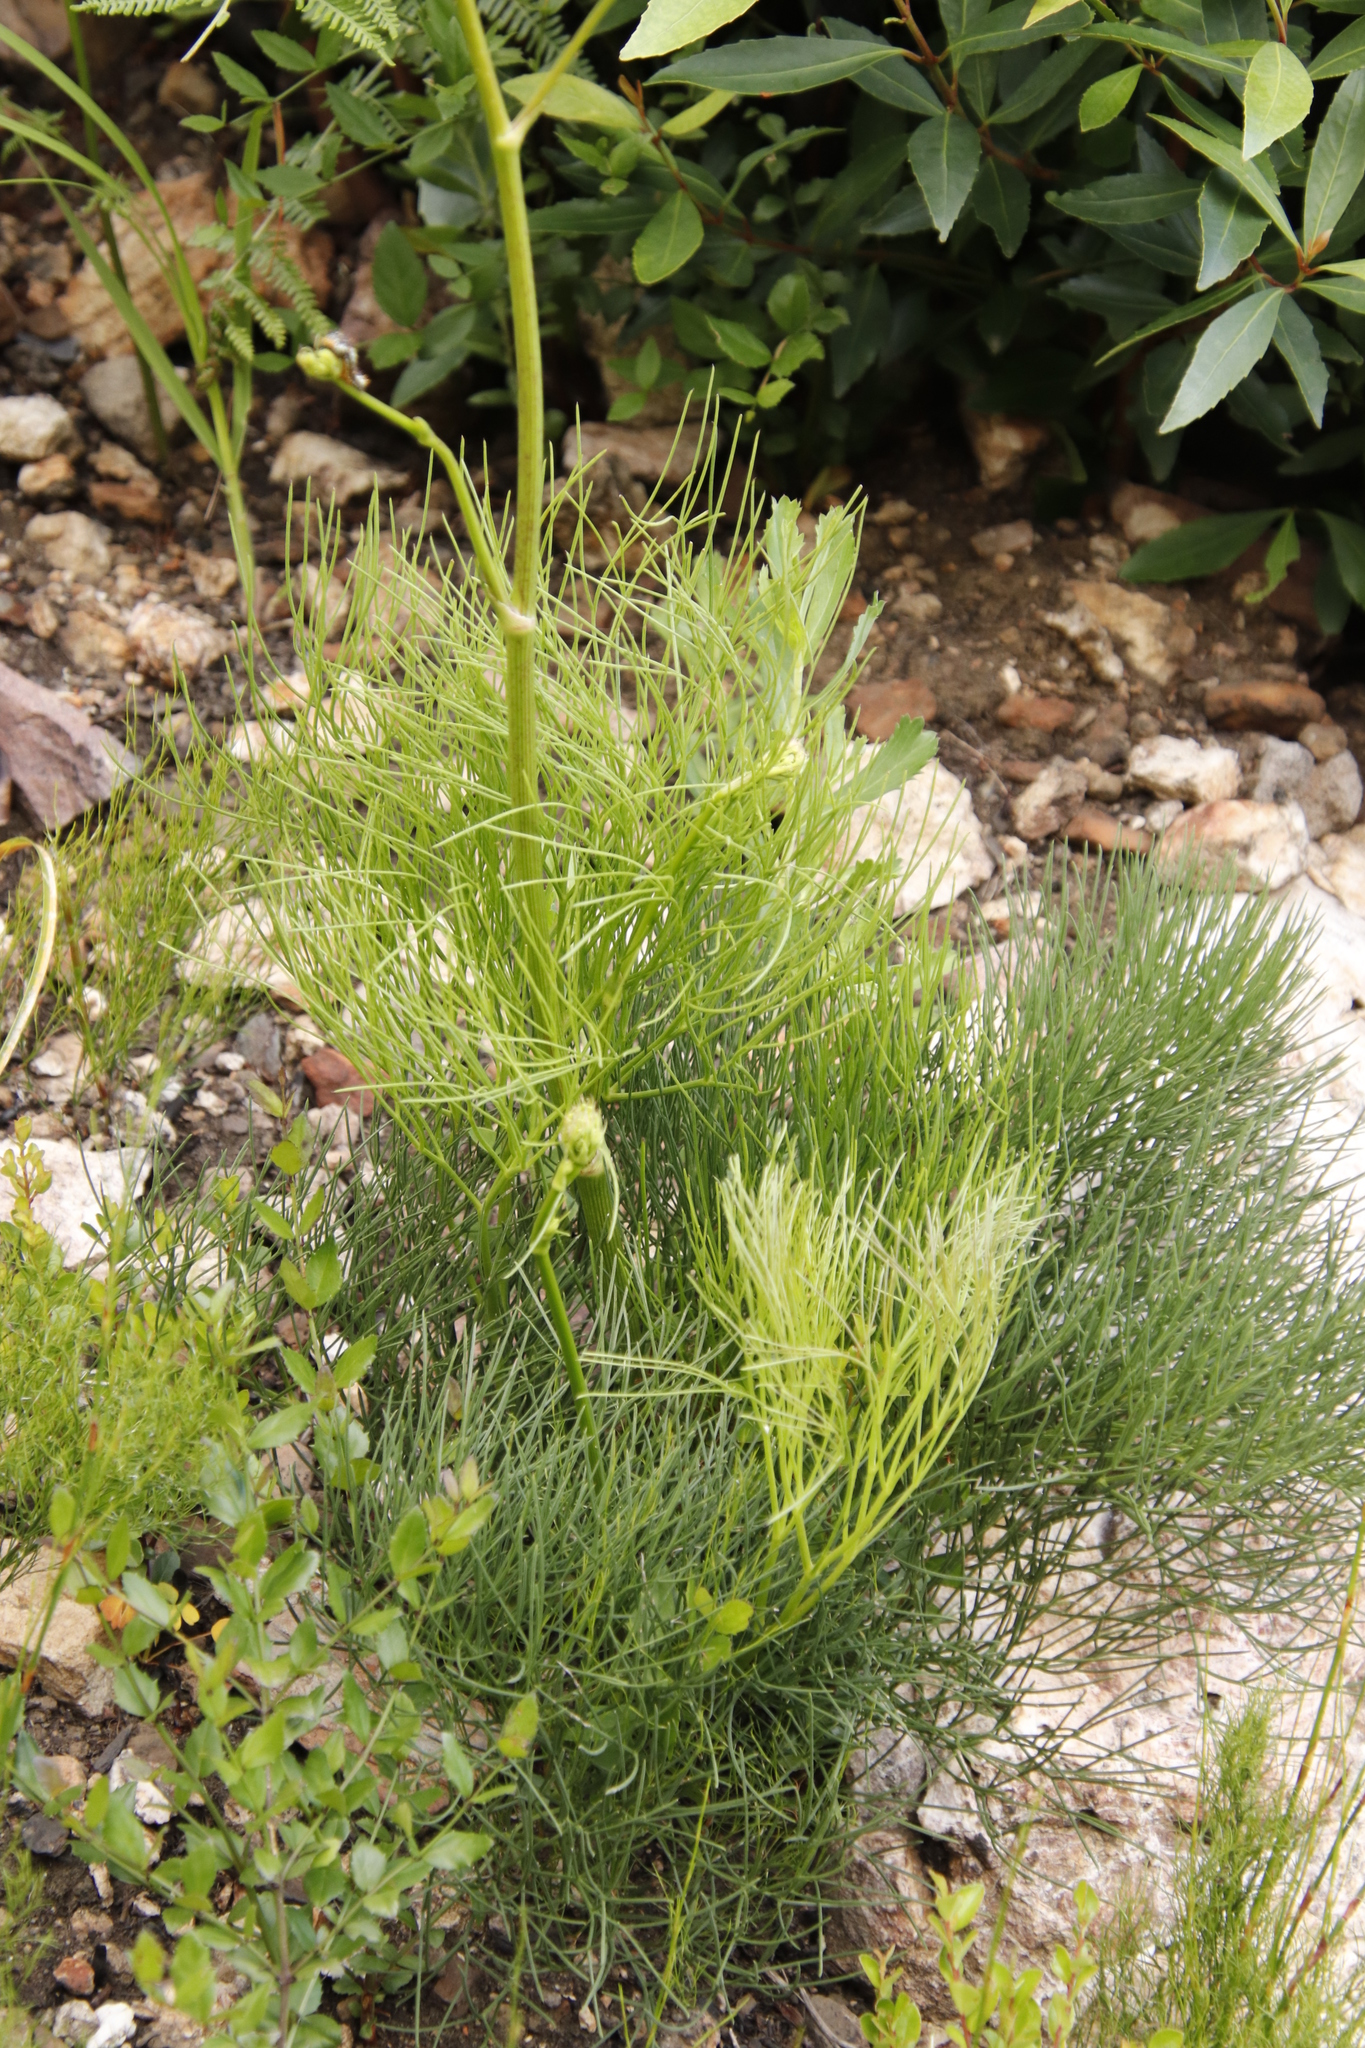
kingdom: Plantae
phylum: Tracheophyta
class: Magnoliopsida
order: Apiales
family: Apiaceae
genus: Nanobubon
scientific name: Nanobubon strictum
